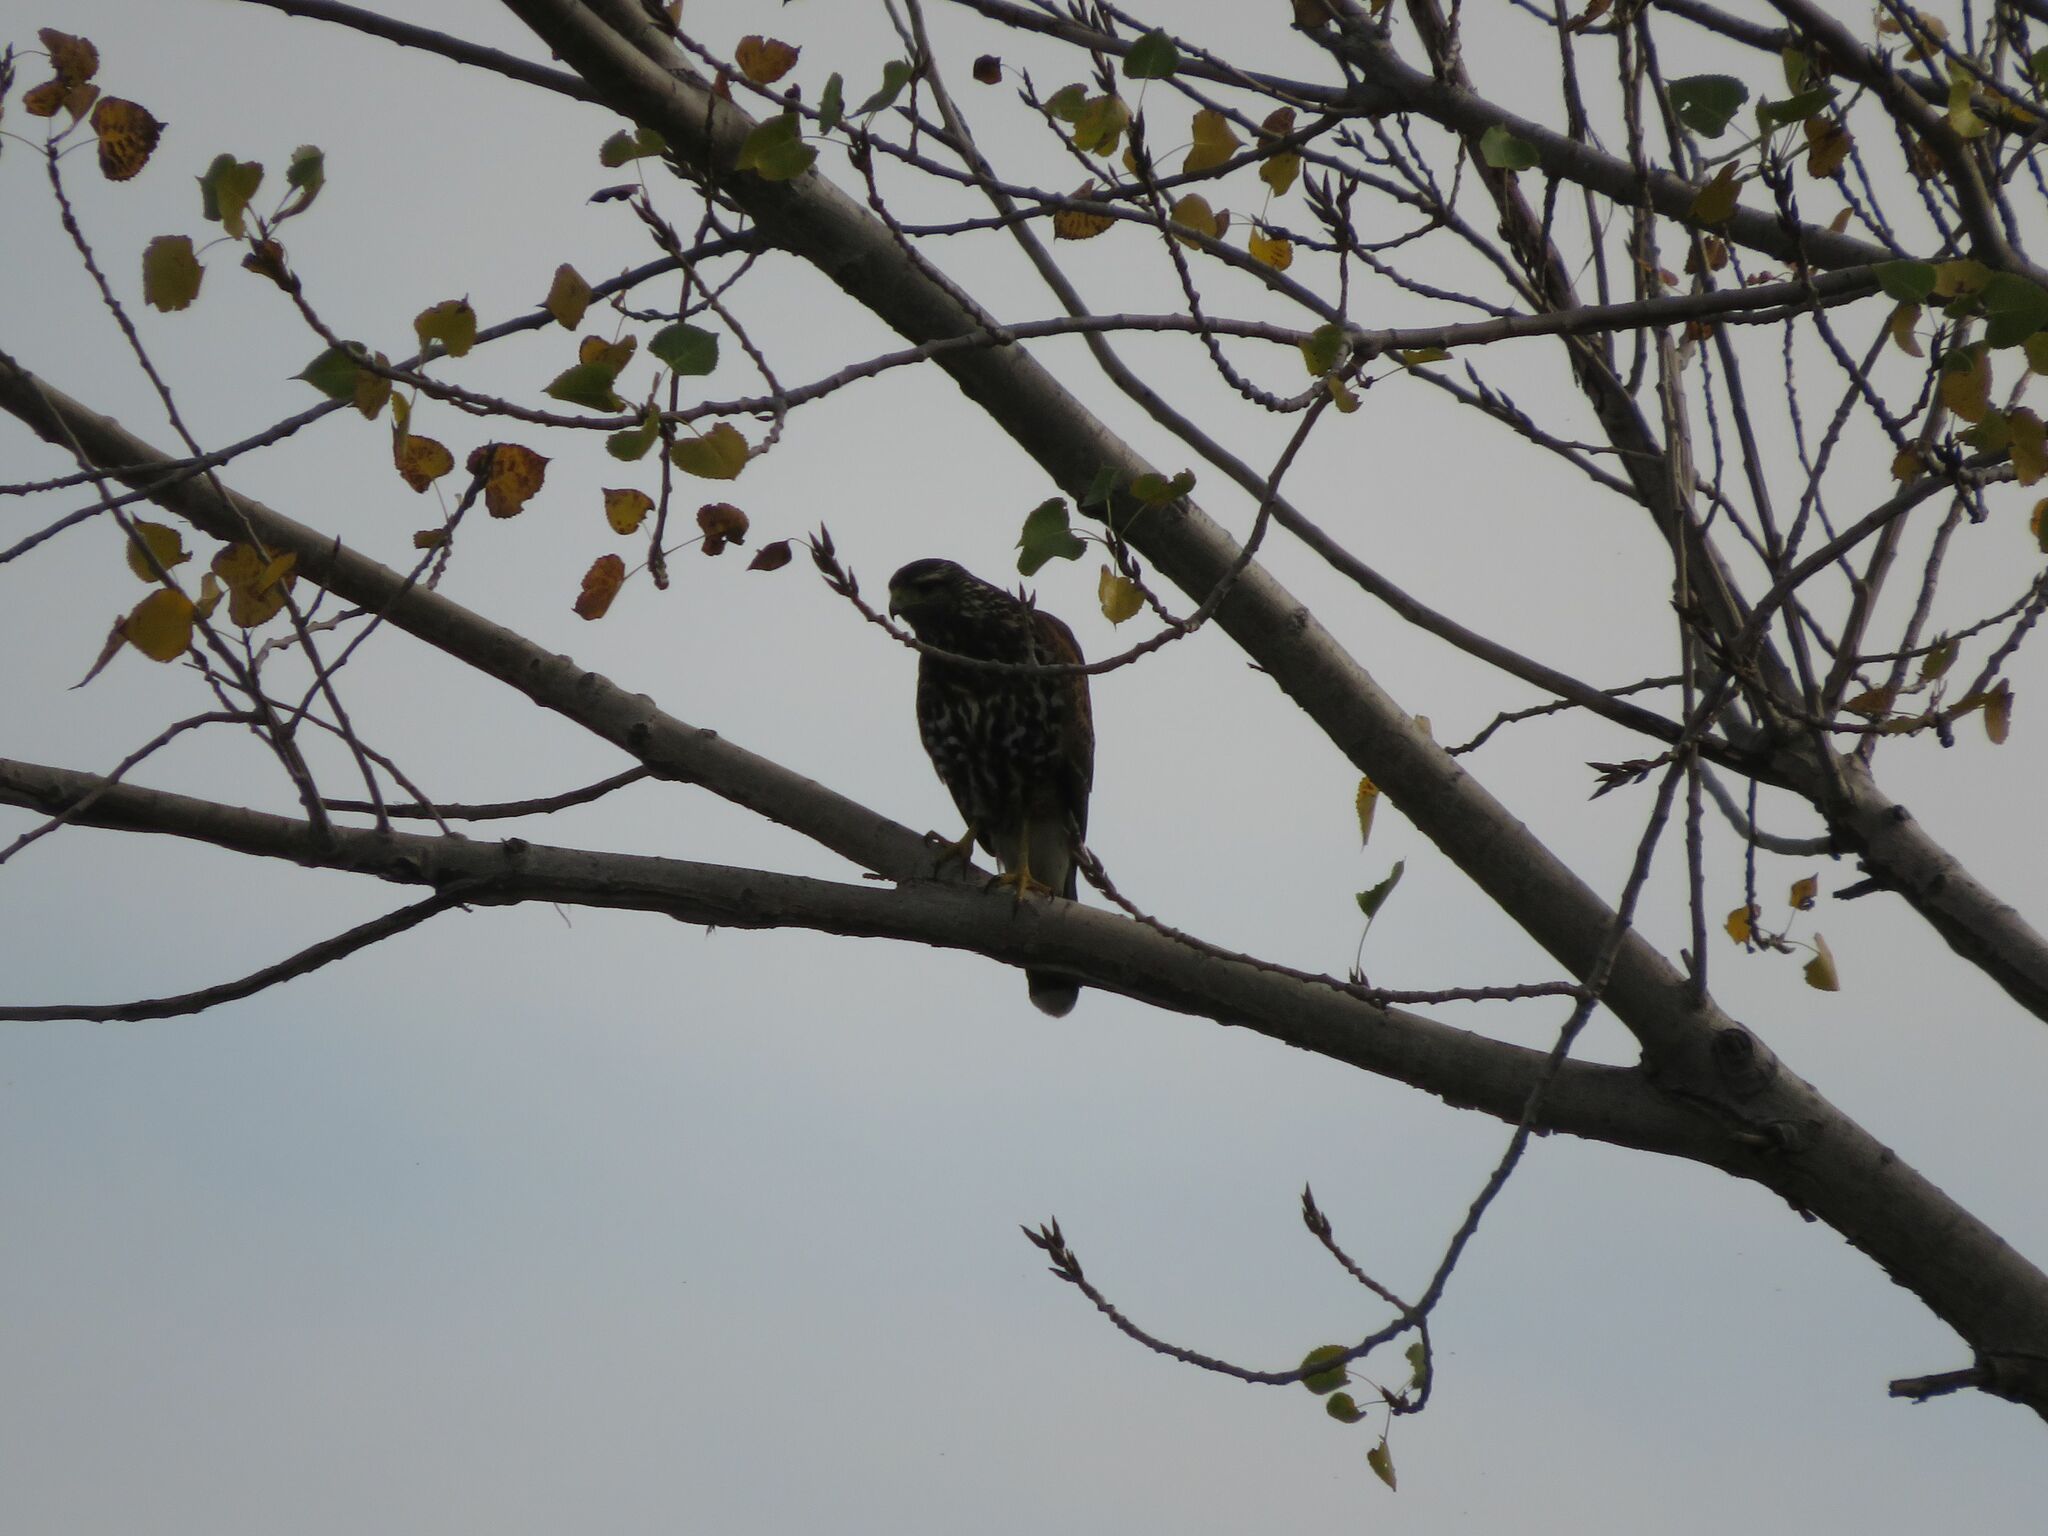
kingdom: Animalia
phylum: Chordata
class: Aves
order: Accipitriformes
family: Accipitridae
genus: Parabuteo
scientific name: Parabuteo unicinctus
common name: Harris's hawk
